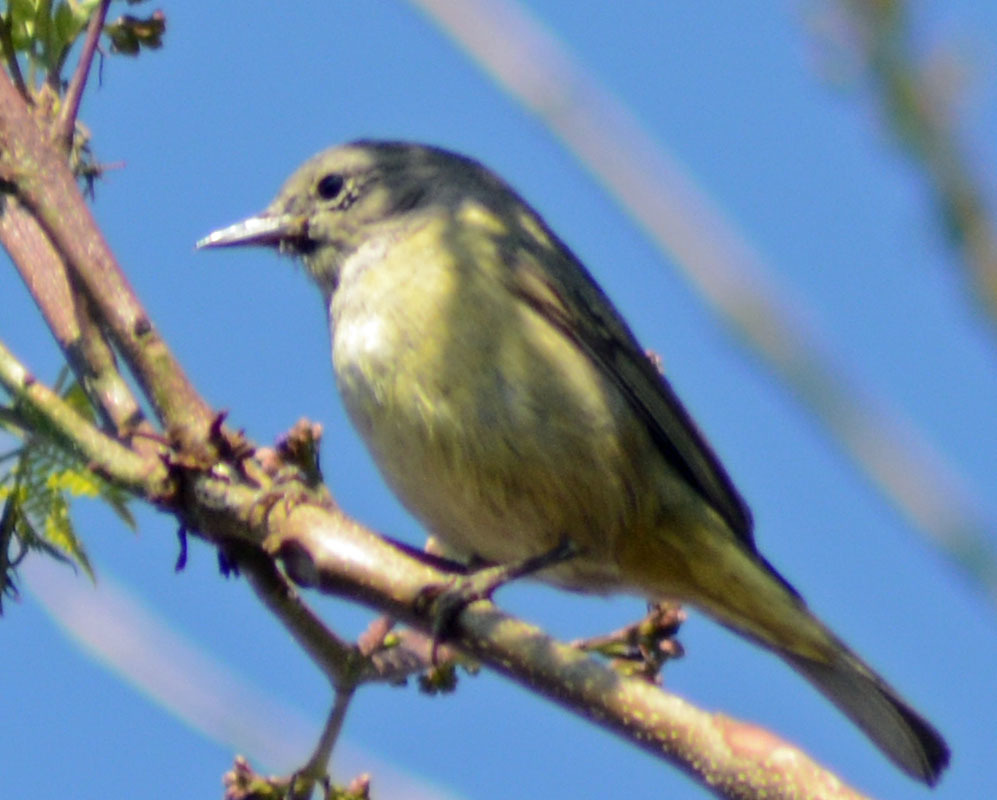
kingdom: Animalia
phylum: Chordata
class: Aves
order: Passeriformes
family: Parulidae
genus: Leiothlypis
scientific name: Leiothlypis celata
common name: Orange-crowned warbler
